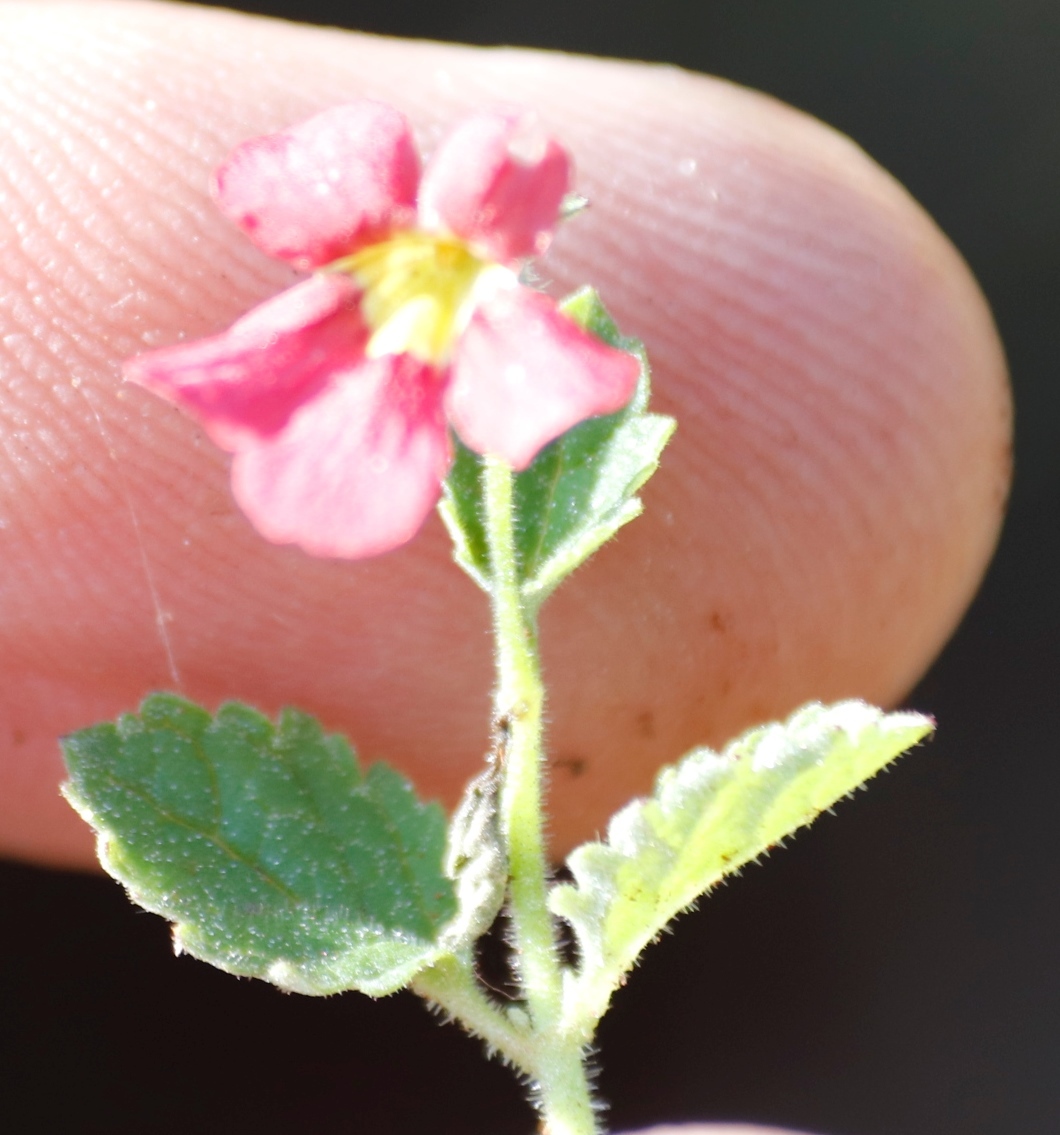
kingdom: Plantae
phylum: Tracheophyta
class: Magnoliopsida
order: Lamiales
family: Scrophulariaceae
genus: Jamesbrittenia
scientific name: Jamesbrittenia breviflora
